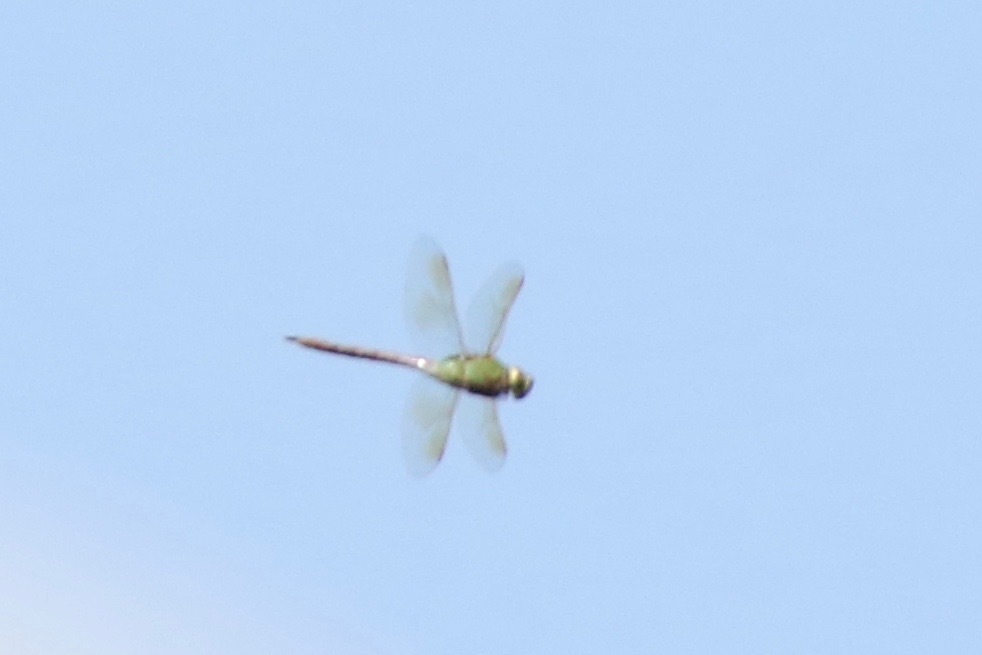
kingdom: Animalia
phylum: Arthropoda
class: Insecta
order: Odonata
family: Aeshnidae
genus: Anax
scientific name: Anax junius
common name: Common green darner
